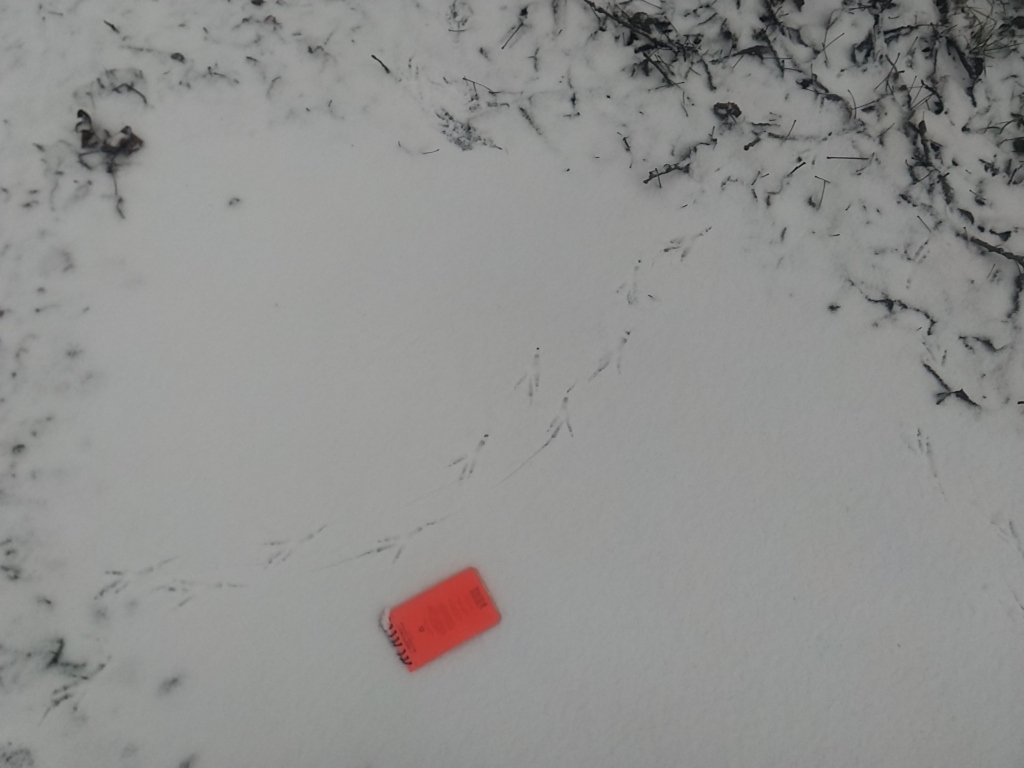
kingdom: Animalia
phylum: Chordata
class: Aves
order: Passeriformes
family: Corvidae
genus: Corvus
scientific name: Corvus brachyrhynchos
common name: American crow
